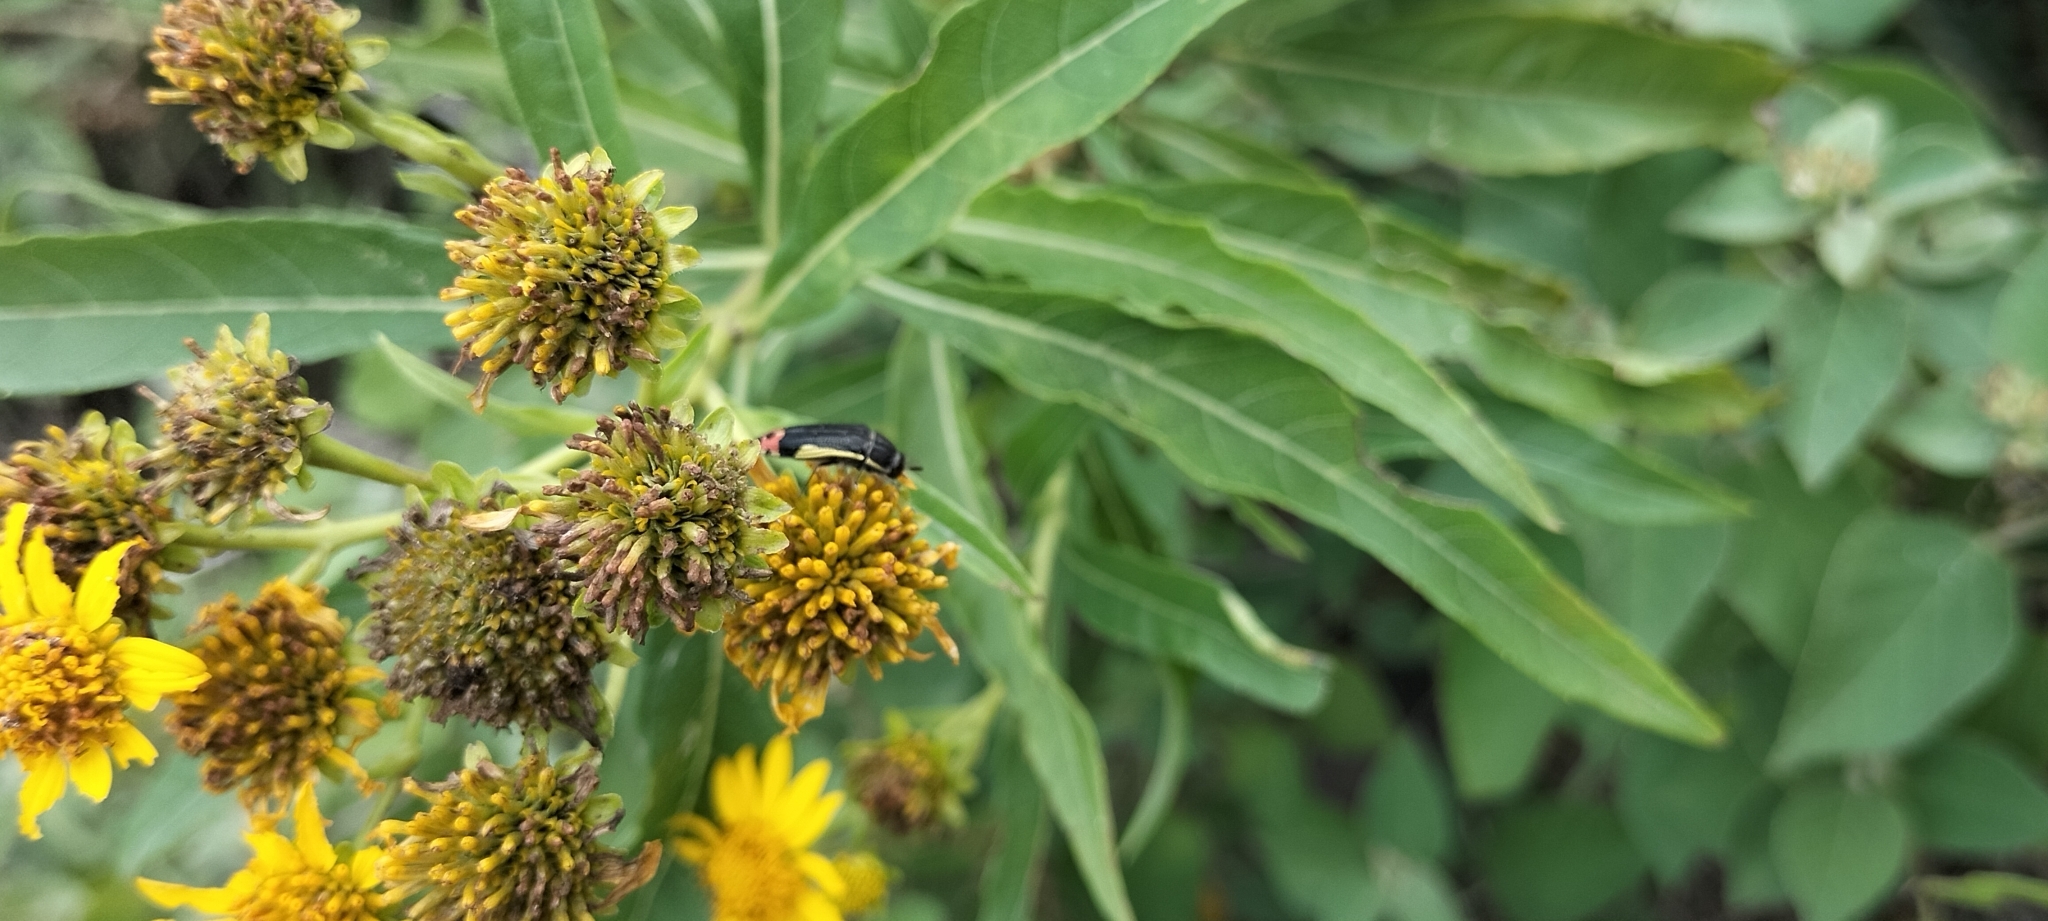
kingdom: Animalia
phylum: Arthropoda
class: Insecta
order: Coleoptera
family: Buprestidae
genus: Acmaeodera
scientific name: Acmaeodera flavomarginata
